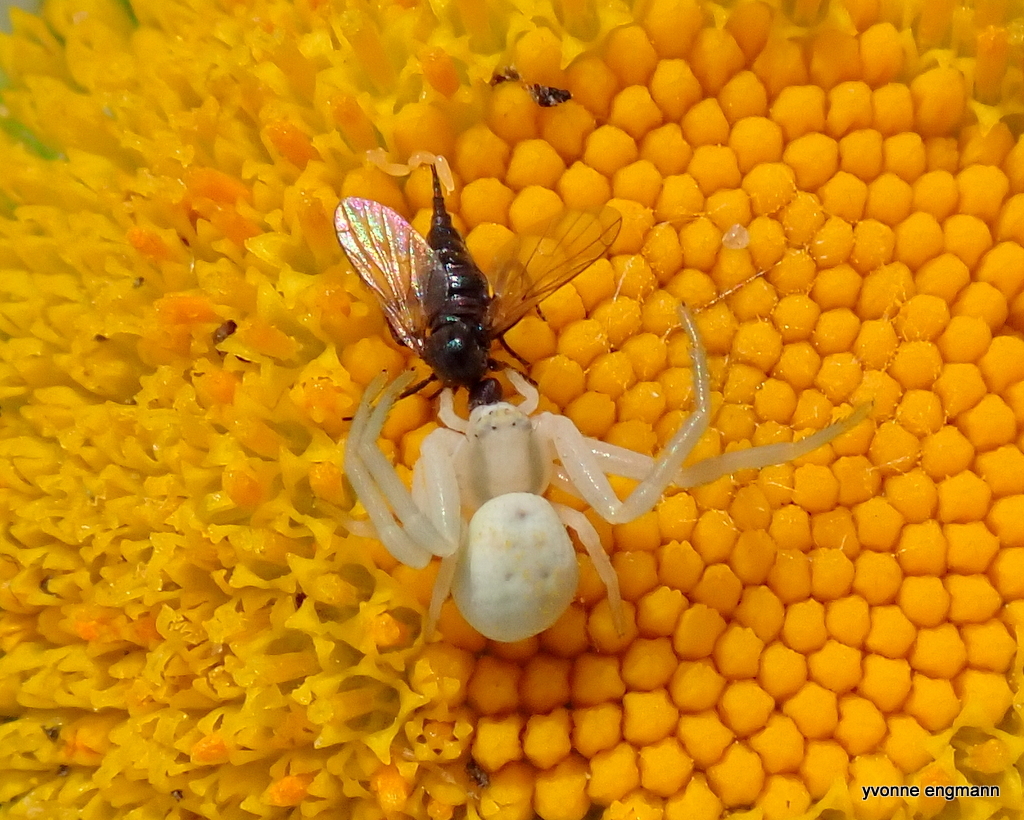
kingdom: Animalia
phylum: Arthropoda
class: Arachnida
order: Araneae
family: Thomisidae
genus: Misumena
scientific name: Misumena vatia
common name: Goldenrod crab spider
